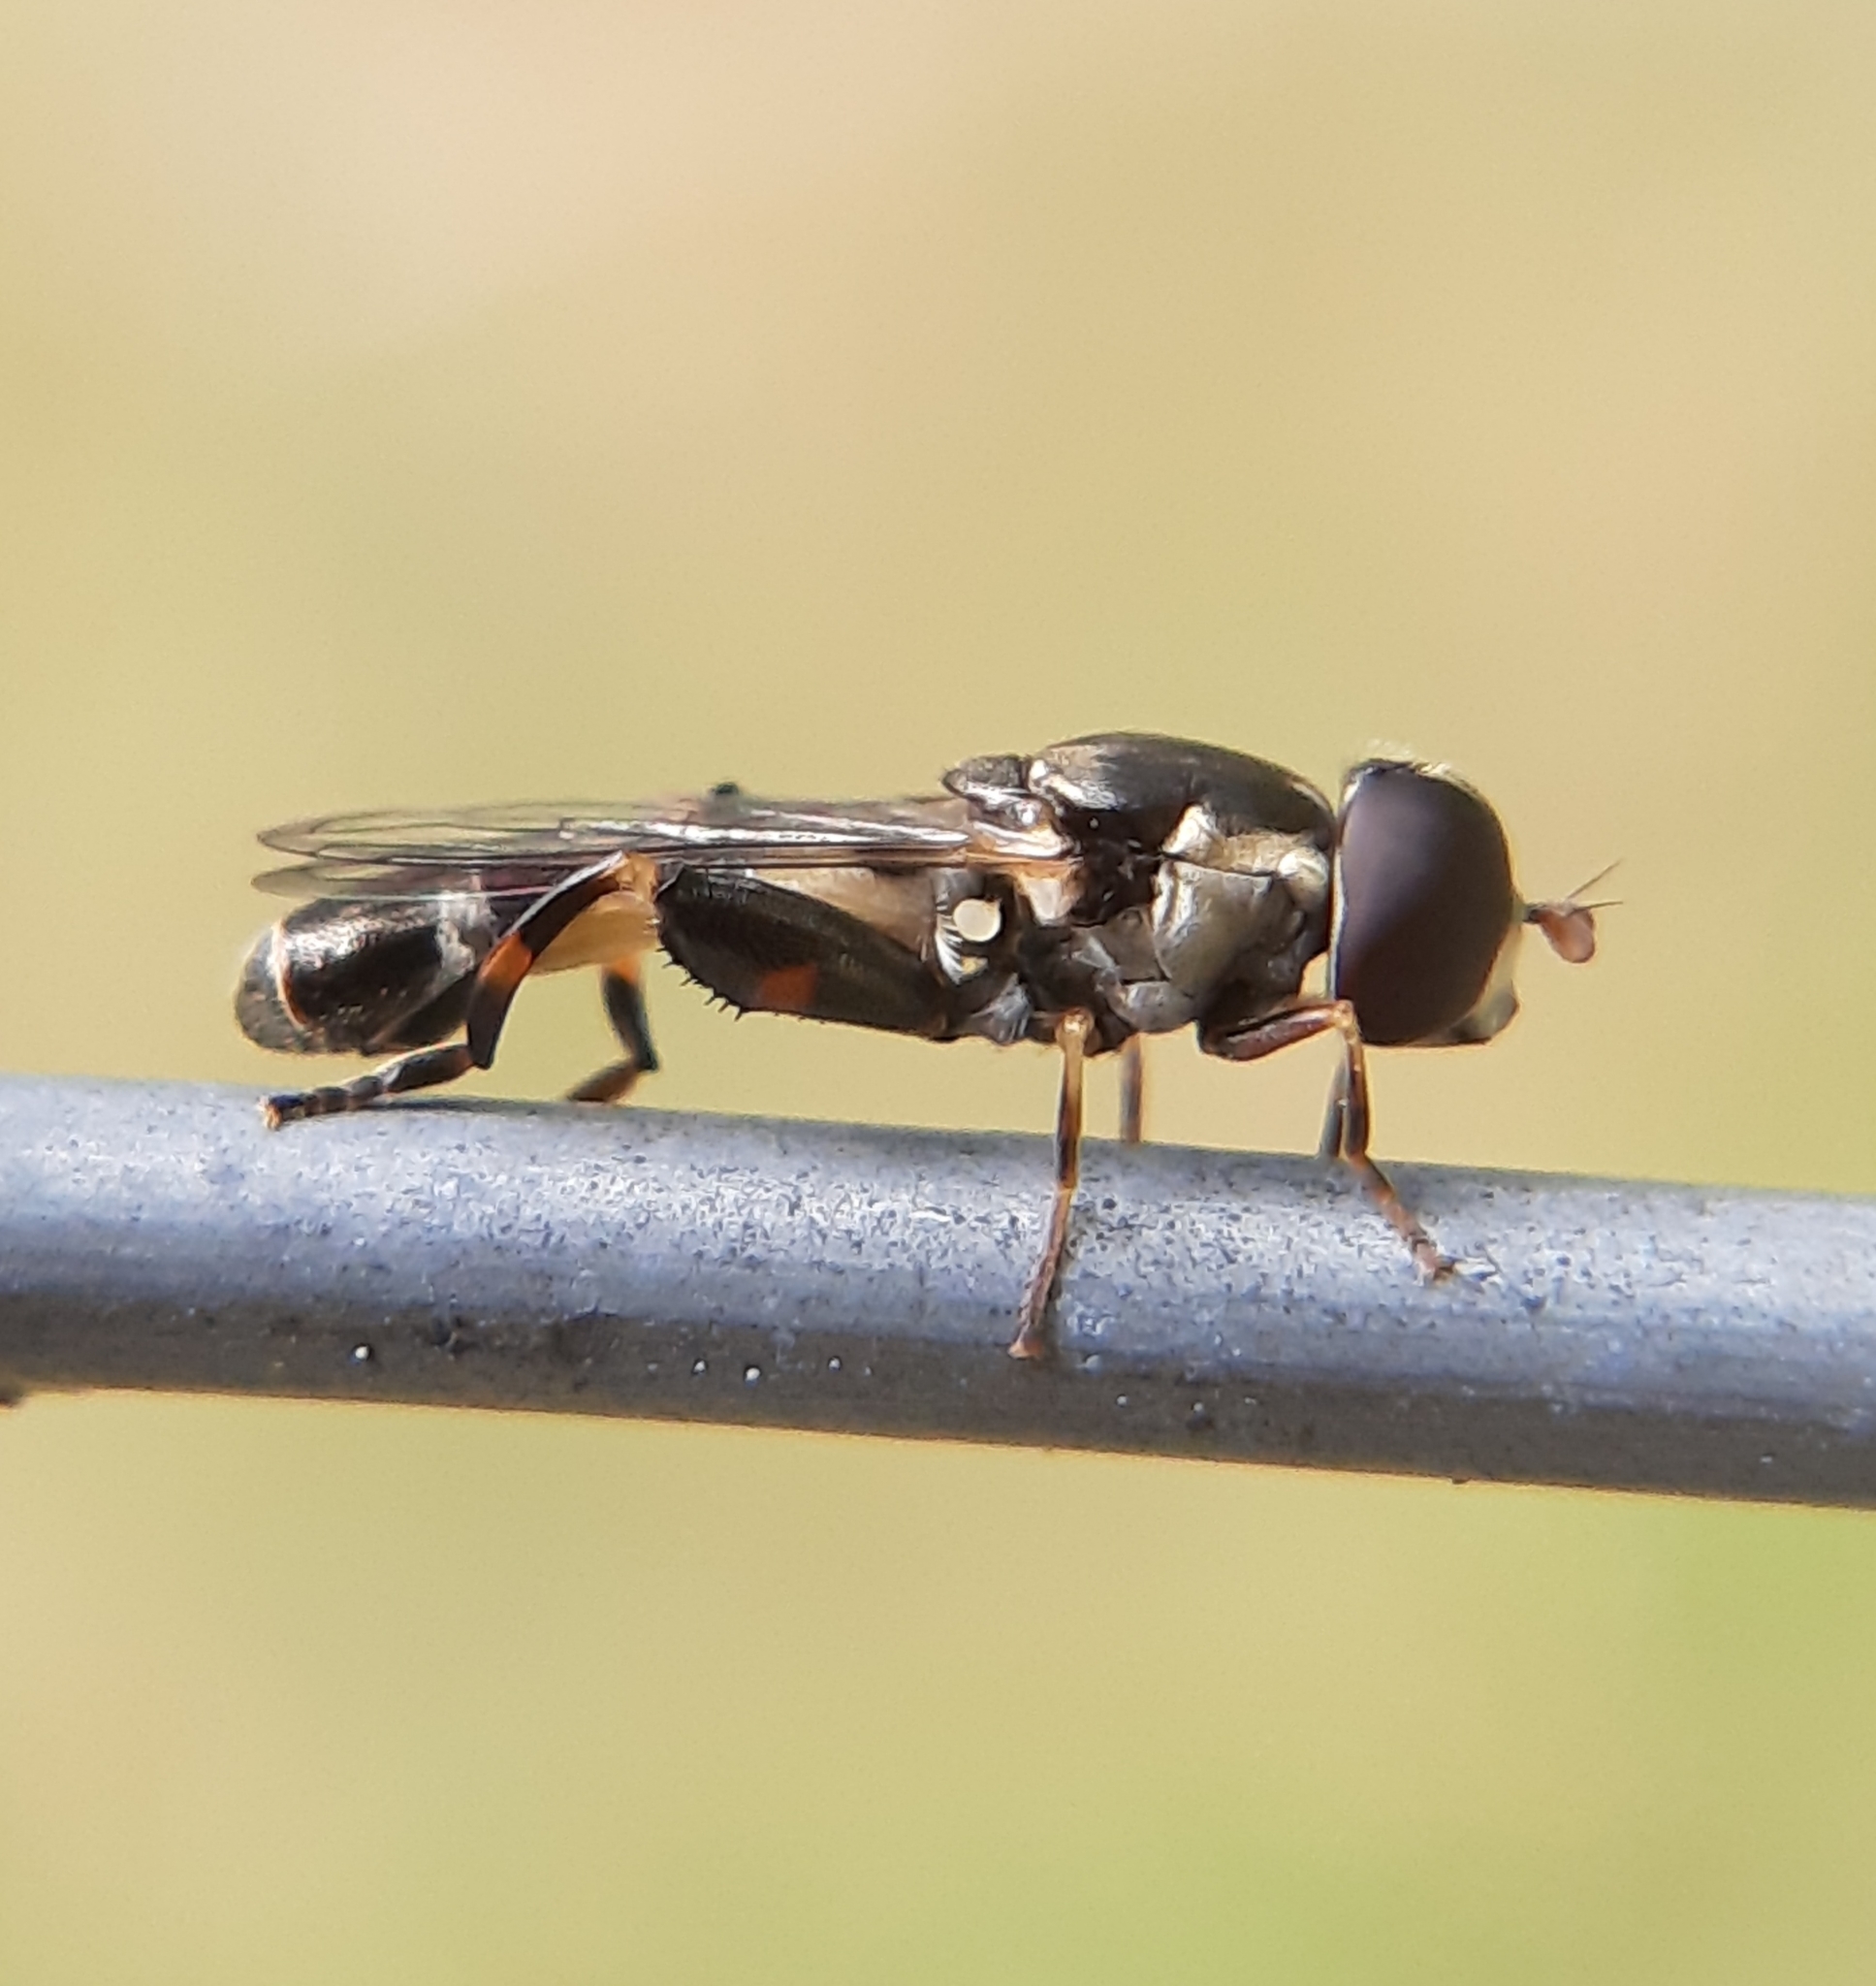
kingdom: Animalia
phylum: Arthropoda
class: Insecta
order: Diptera
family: Syrphidae
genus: Syritta
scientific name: Syritta pipiens
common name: Hover fly
